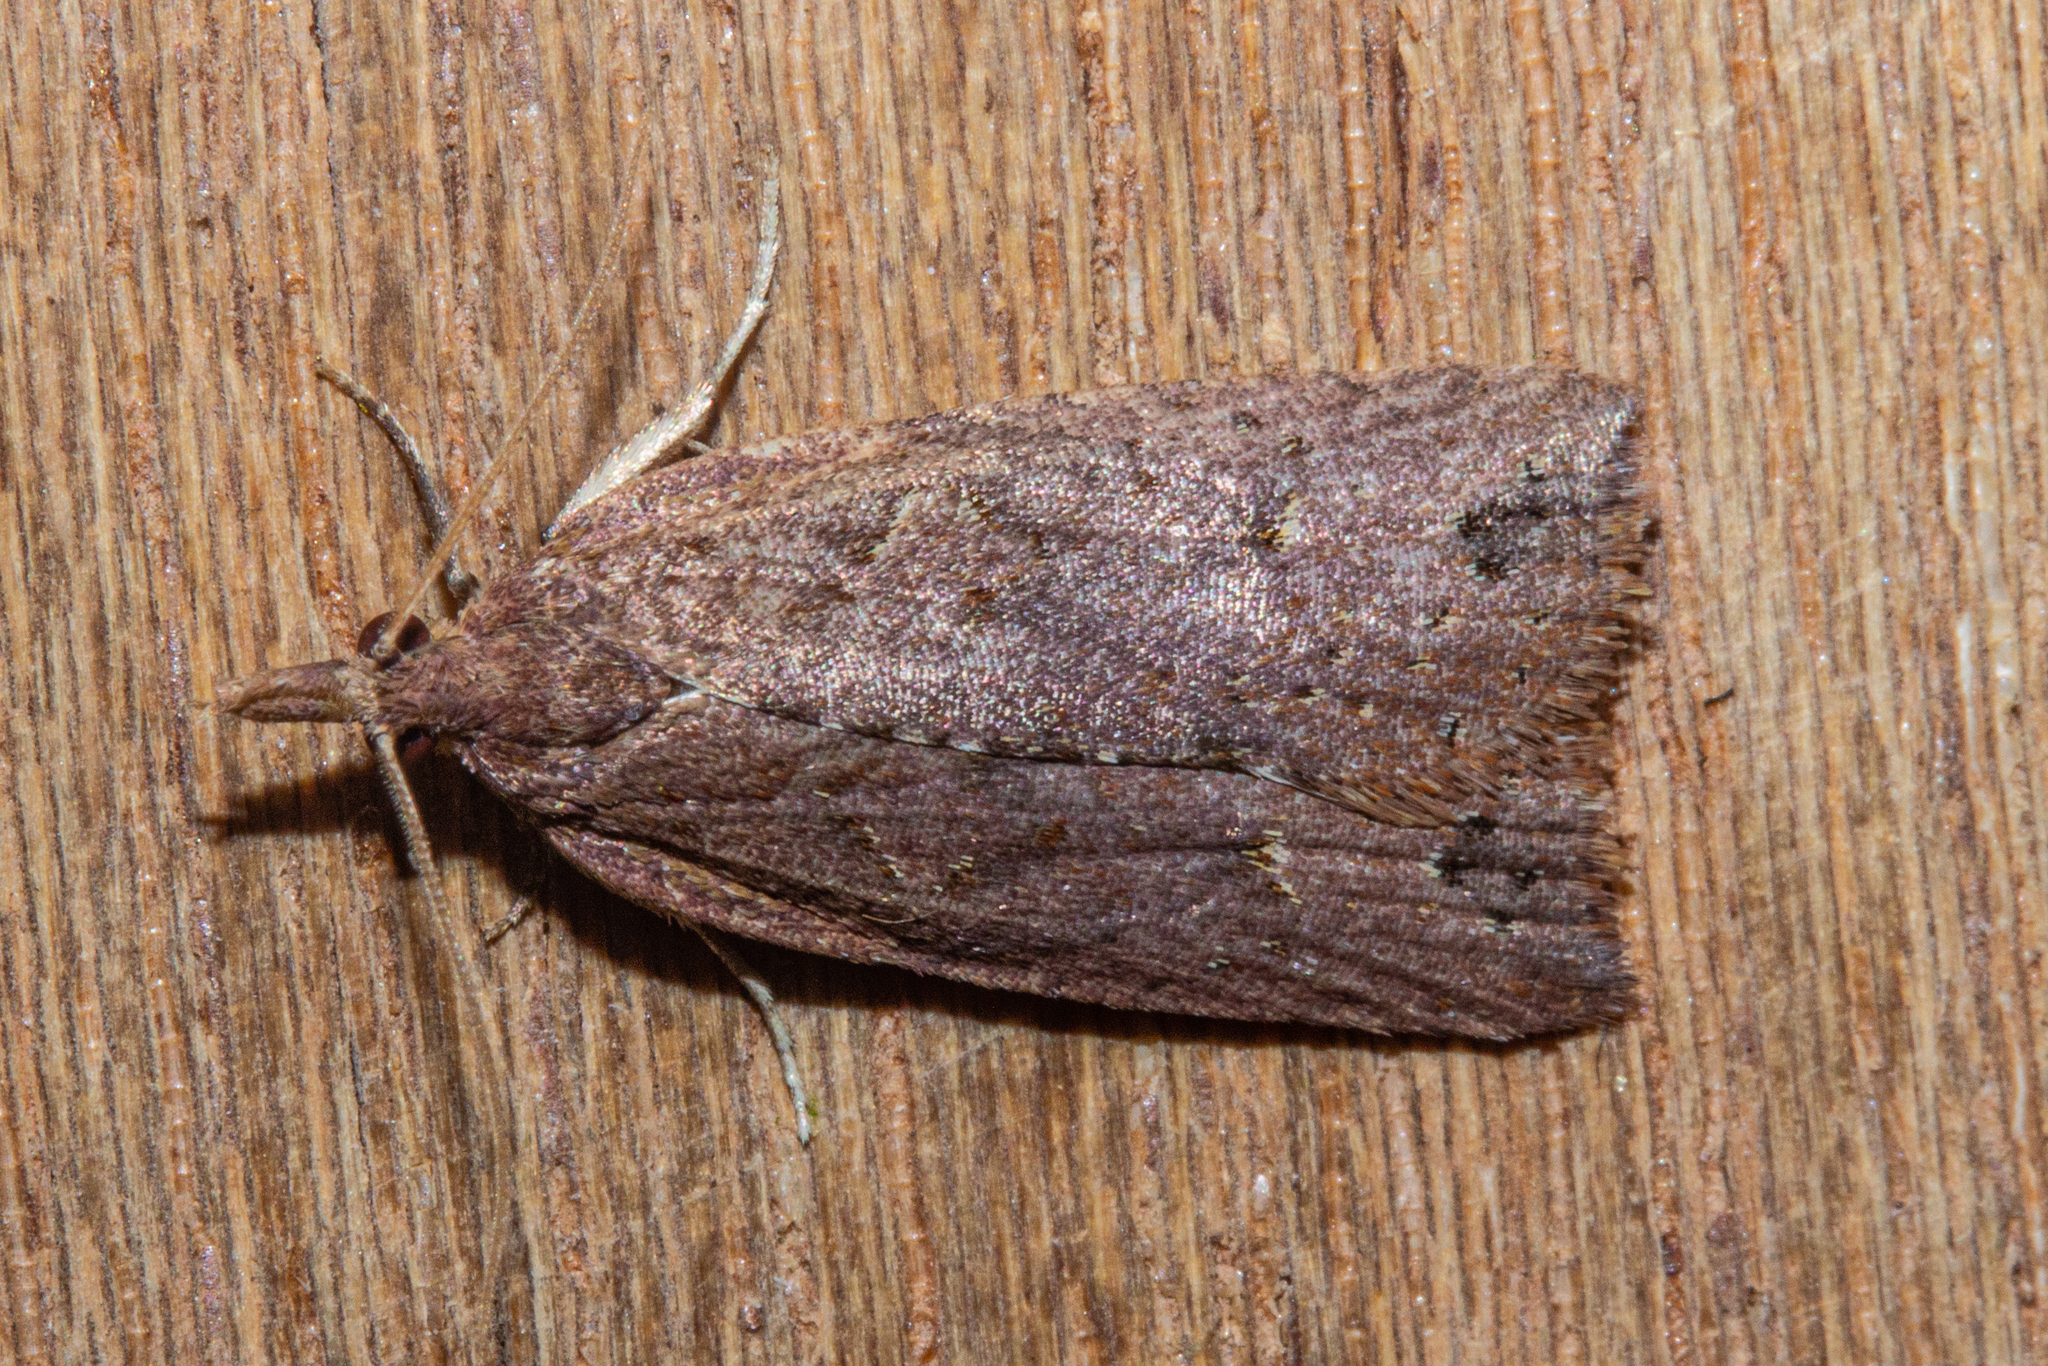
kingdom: Animalia
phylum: Arthropoda
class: Insecta
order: Lepidoptera
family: Tortricidae
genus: Planotortrix
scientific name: Planotortrix notophaea
